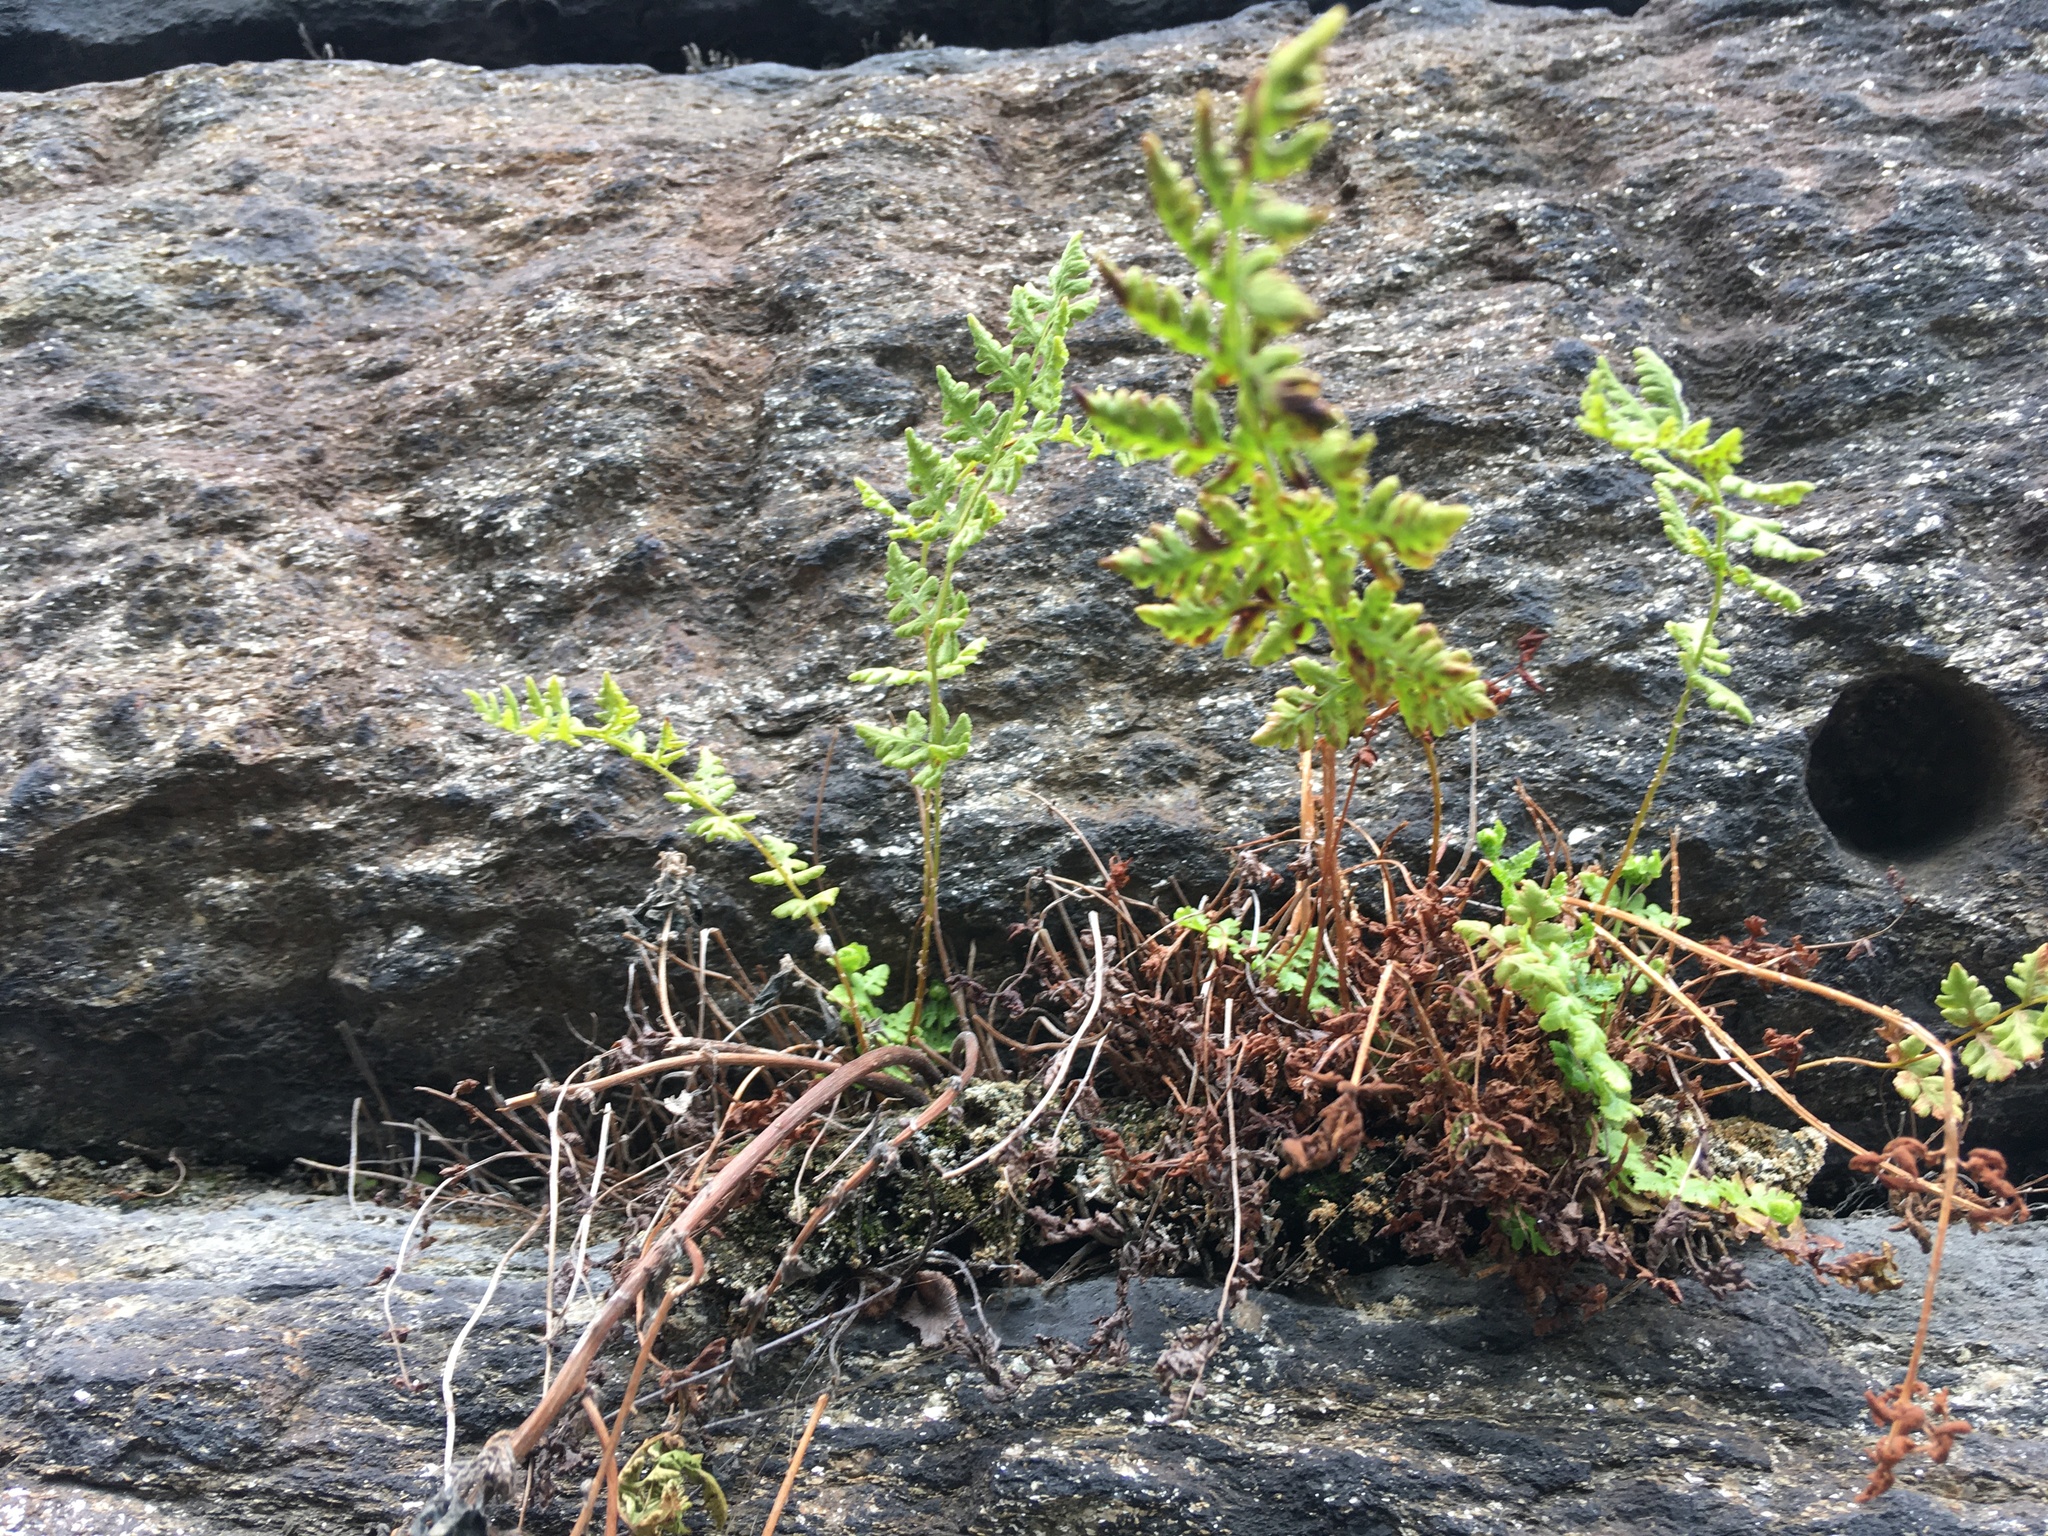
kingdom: Plantae
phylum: Tracheophyta
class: Polypodiopsida
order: Polypodiales
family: Woodsiaceae
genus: Physematium
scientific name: Physematium obtusum
